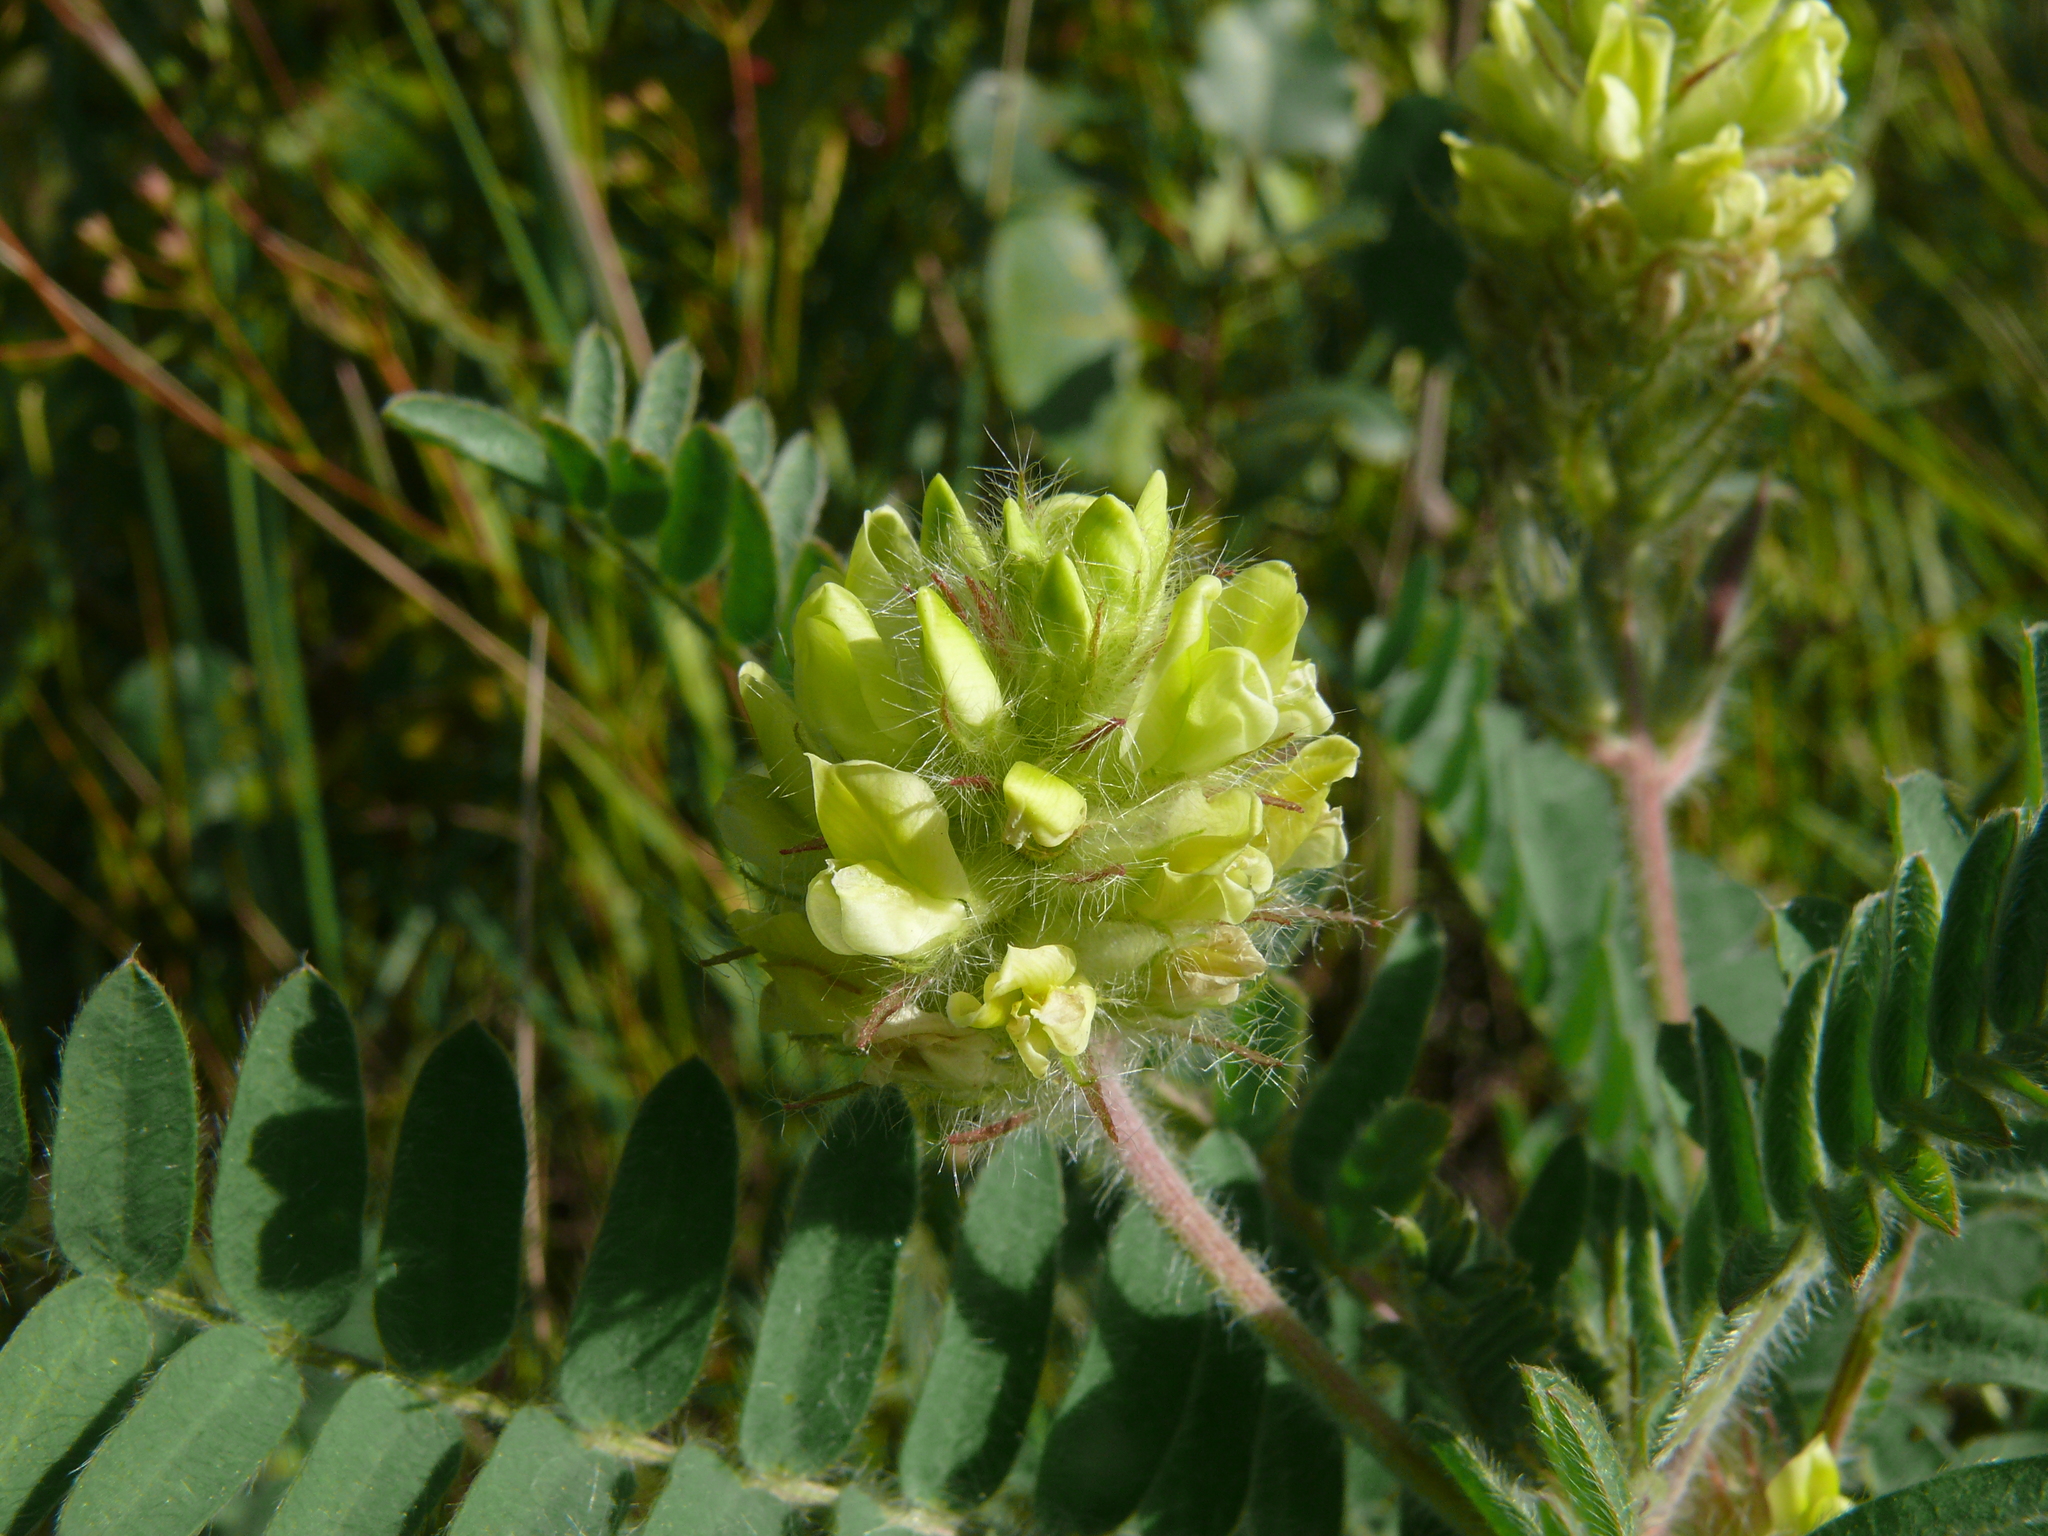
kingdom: Plantae
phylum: Tracheophyta
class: Magnoliopsida
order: Fabales
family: Fabaceae
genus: Oxytropis
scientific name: Oxytropis pilosa
